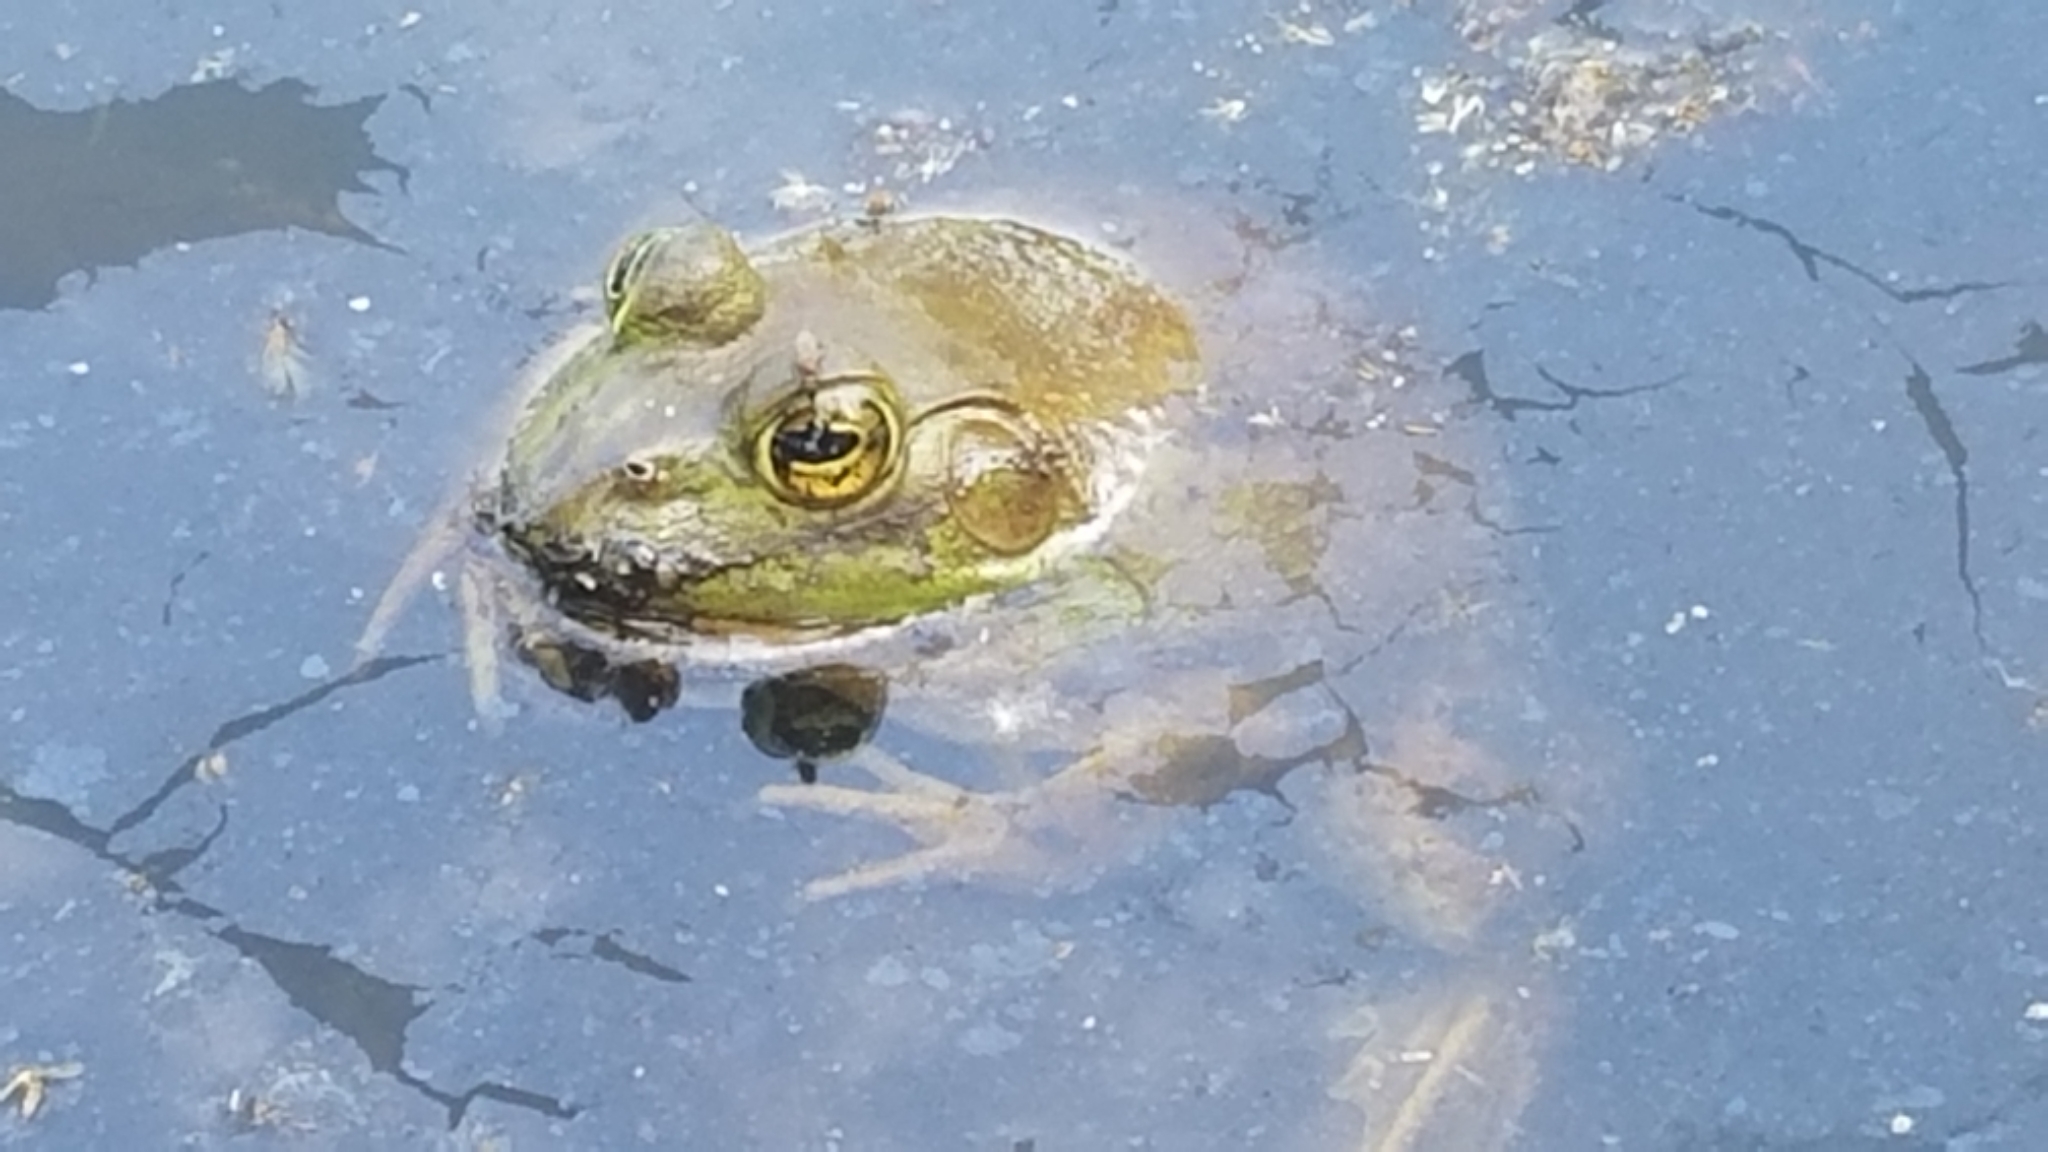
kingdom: Animalia
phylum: Chordata
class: Amphibia
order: Anura
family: Ranidae
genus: Lithobates
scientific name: Lithobates catesbeianus
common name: American bullfrog
